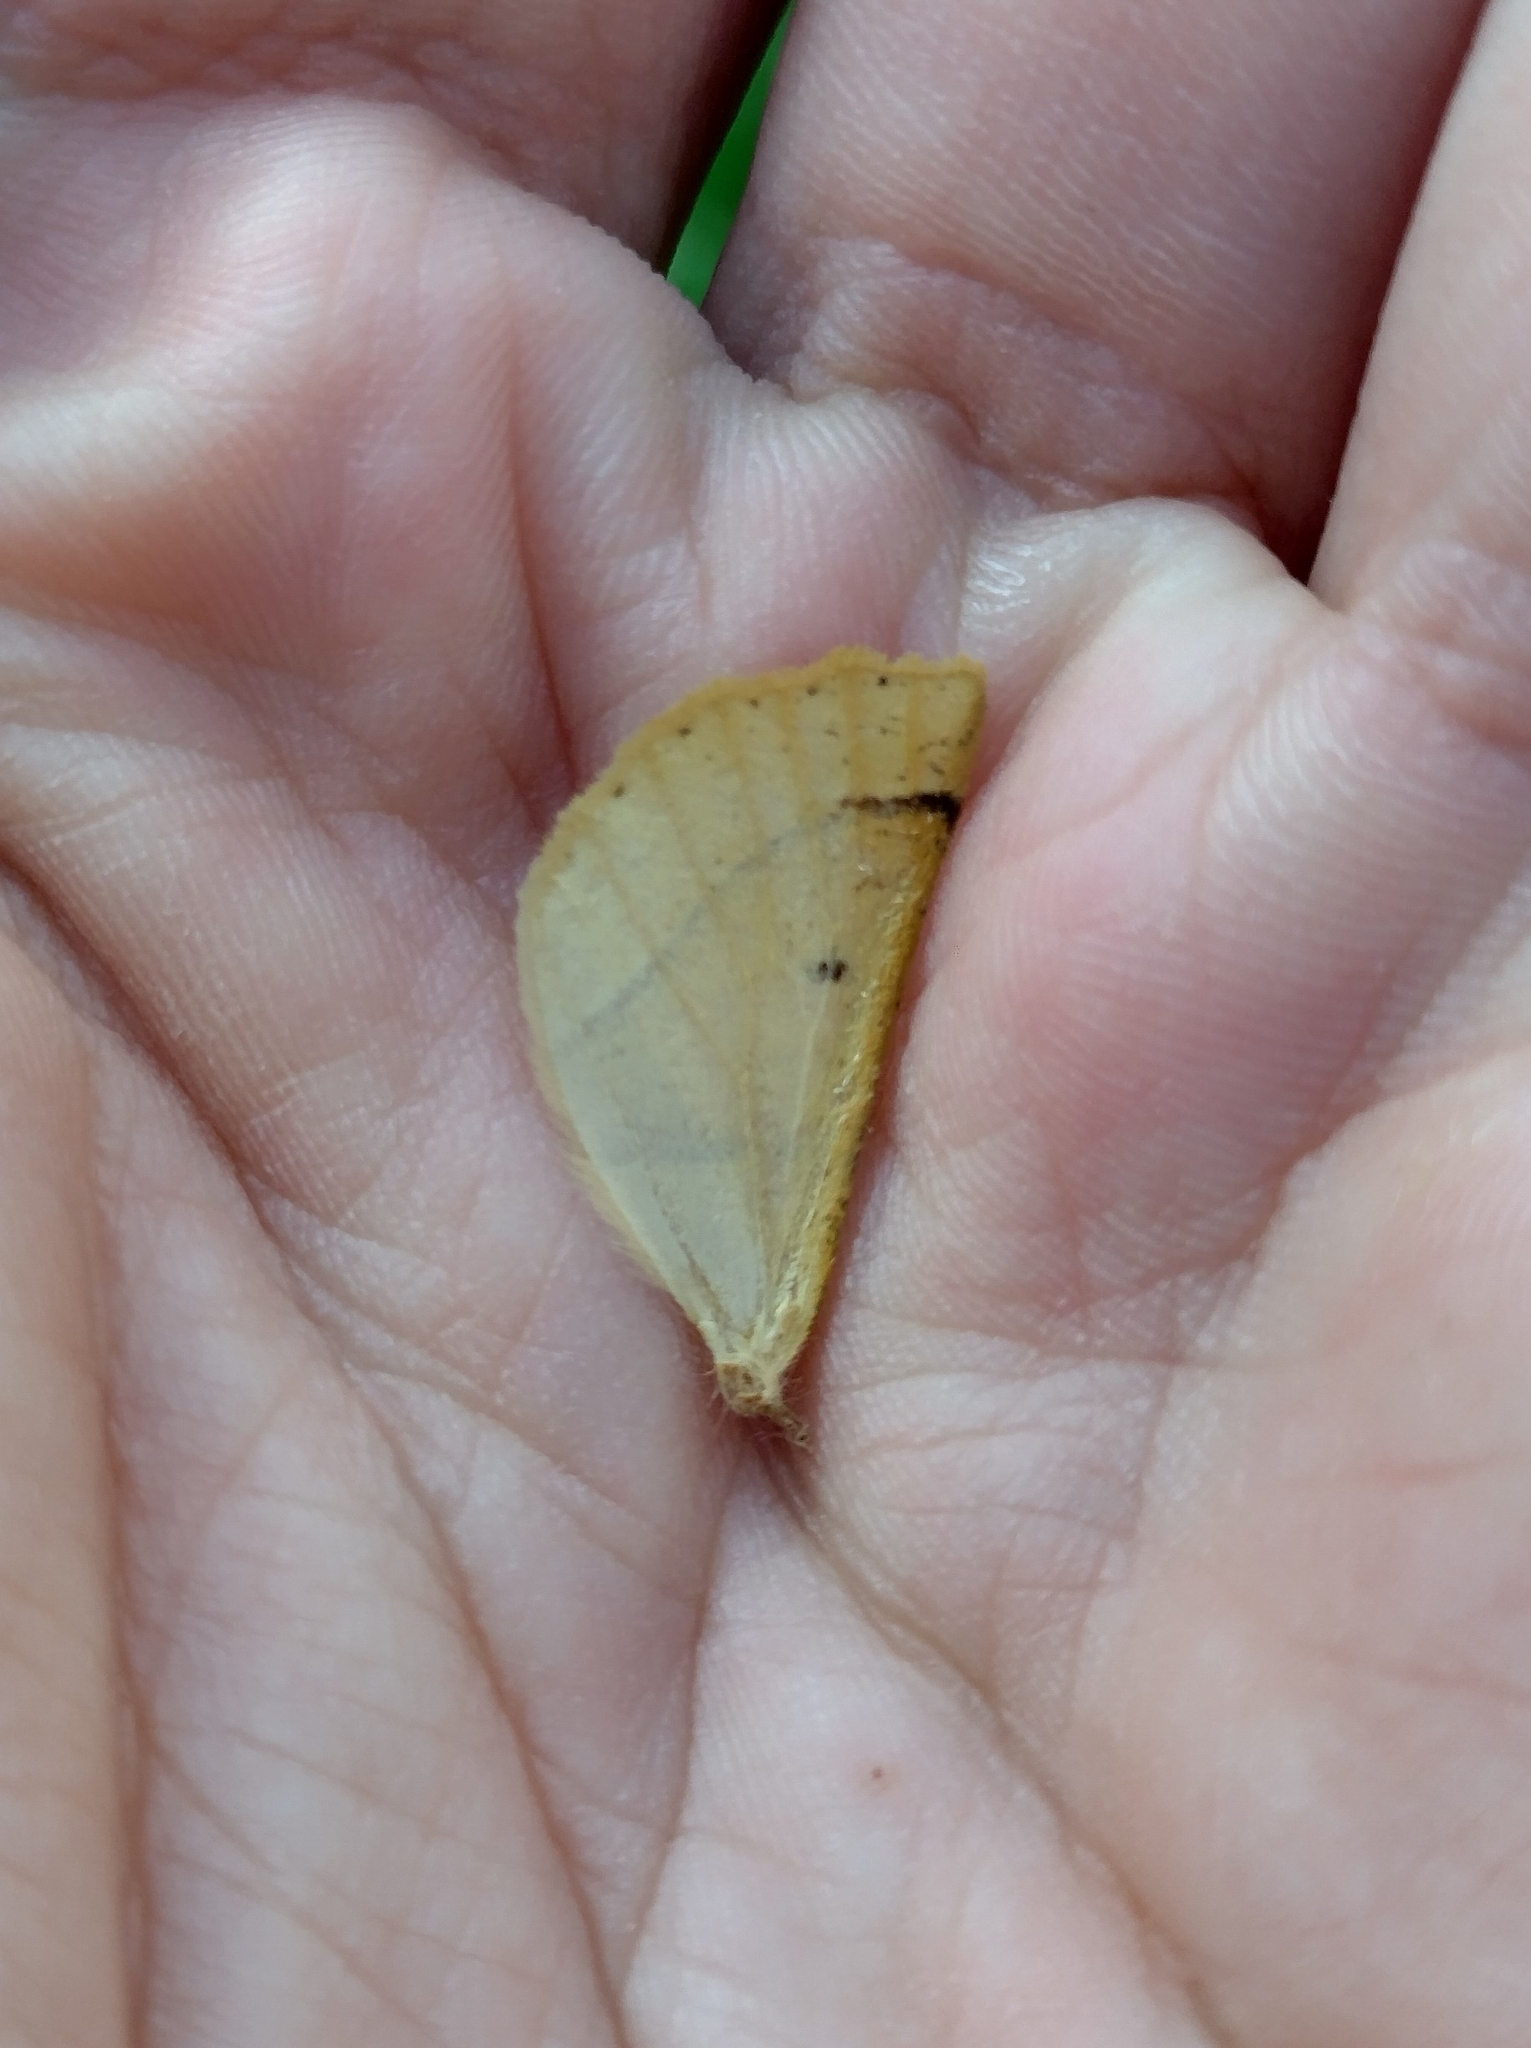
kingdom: Animalia
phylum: Arthropoda
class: Insecta
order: Lepidoptera
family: Geometridae
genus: Crocallis
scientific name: Crocallis elinguaria
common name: Scalloped oak
